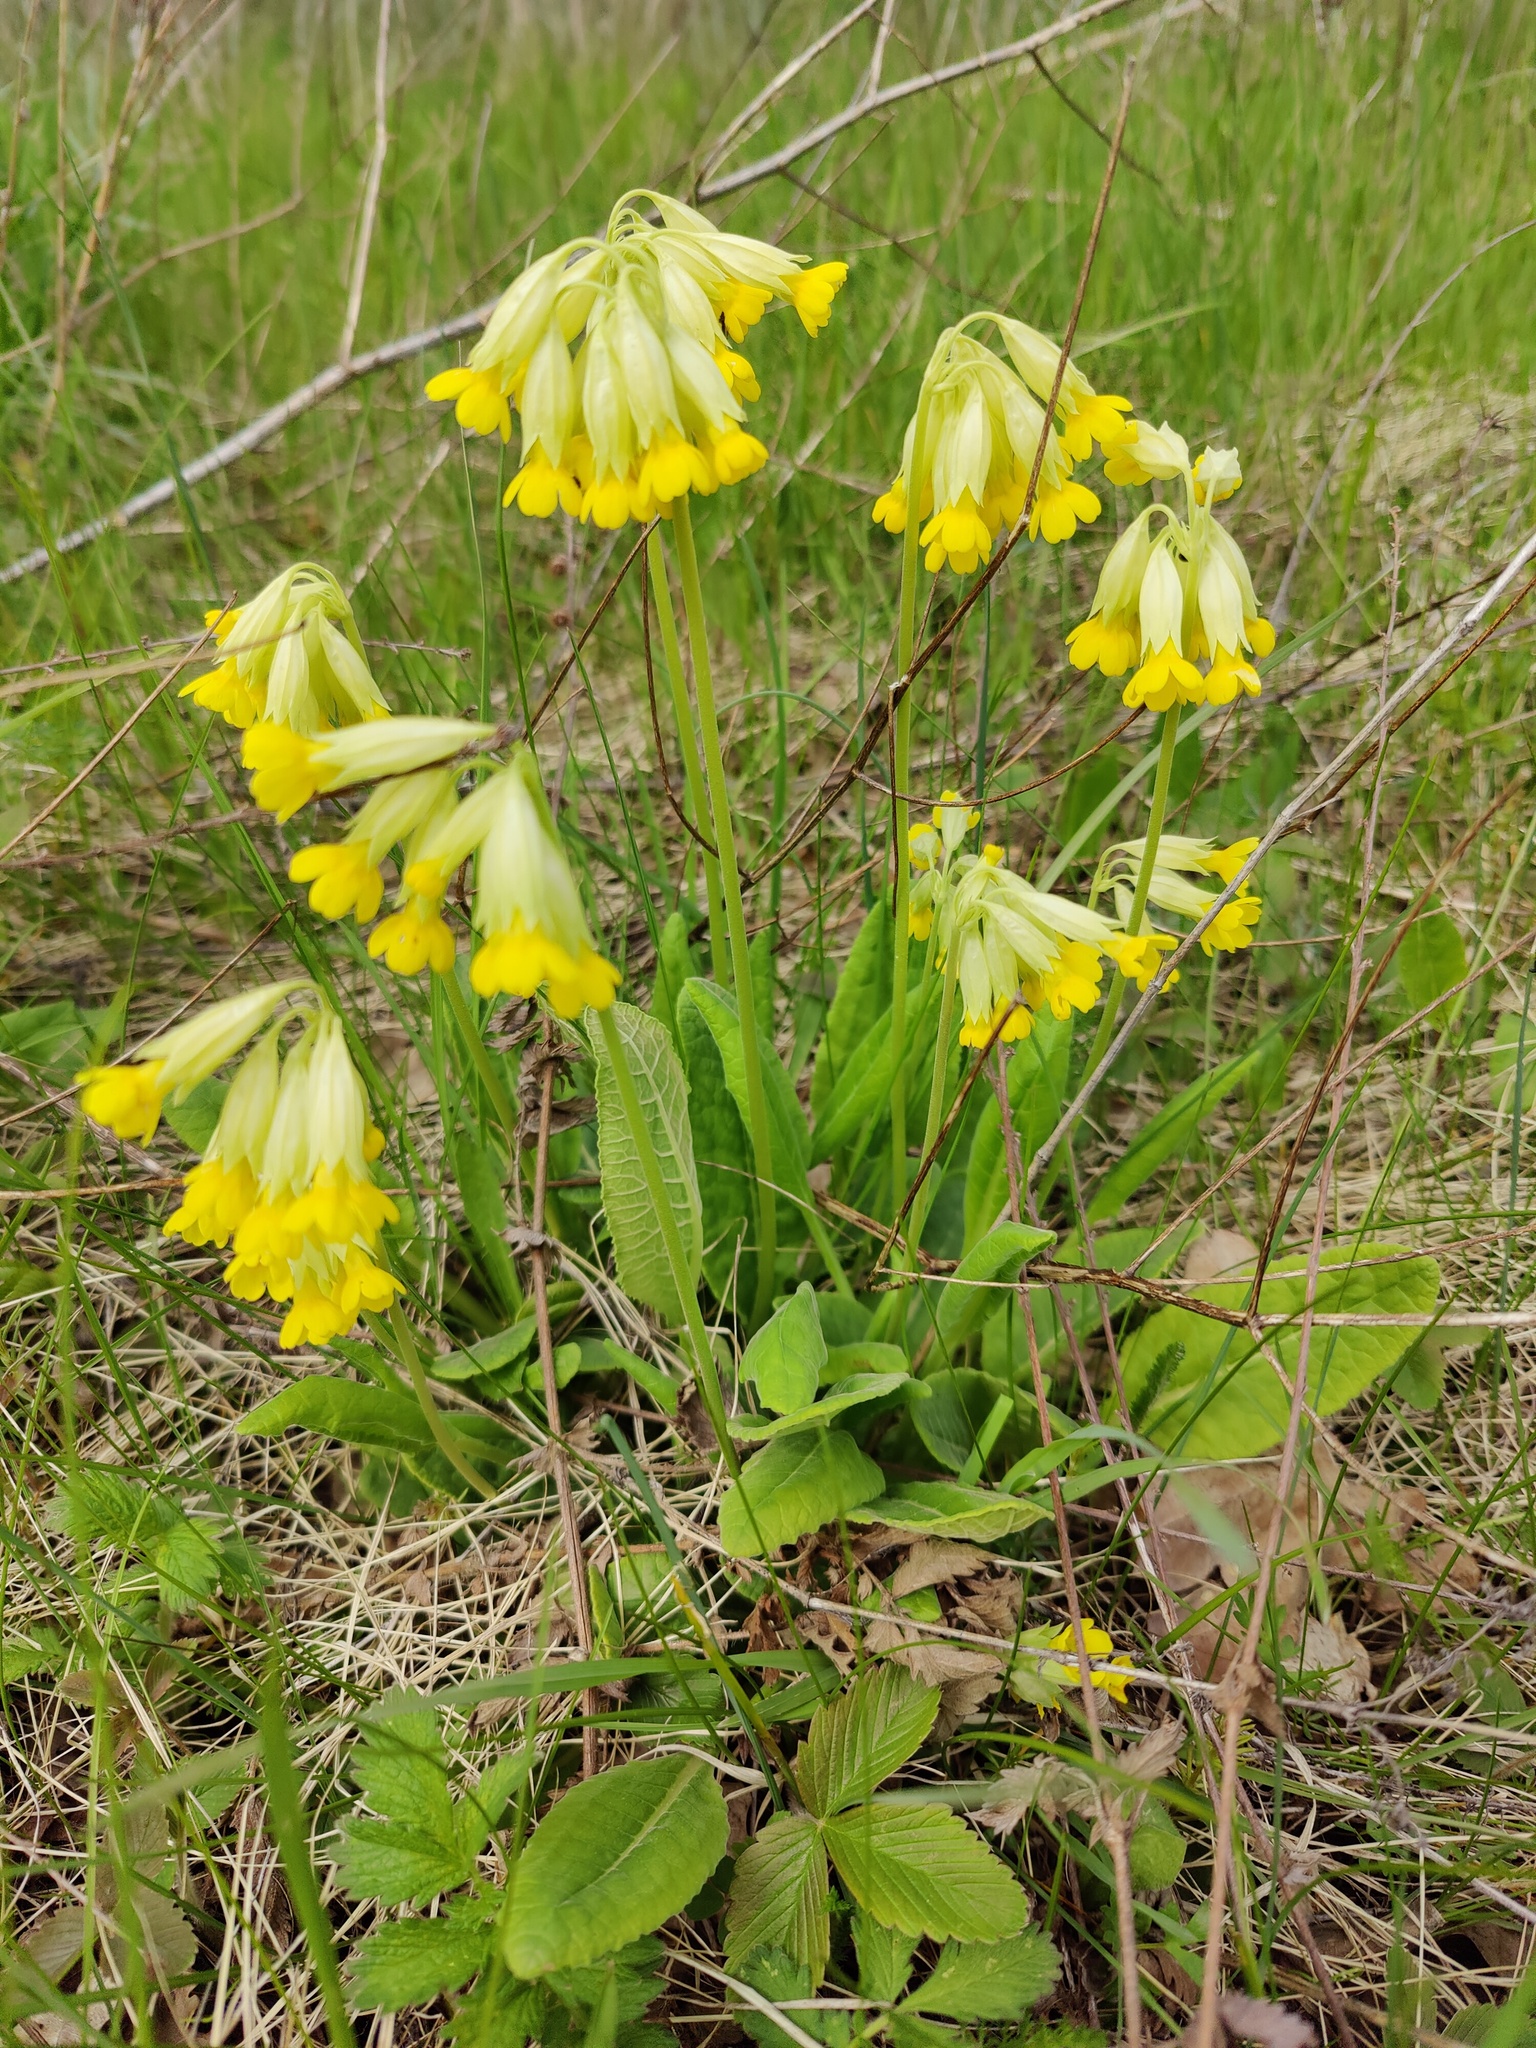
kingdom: Plantae
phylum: Tracheophyta
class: Magnoliopsida
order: Ericales
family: Primulaceae
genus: Primula
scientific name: Primula veris
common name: Cowslip
